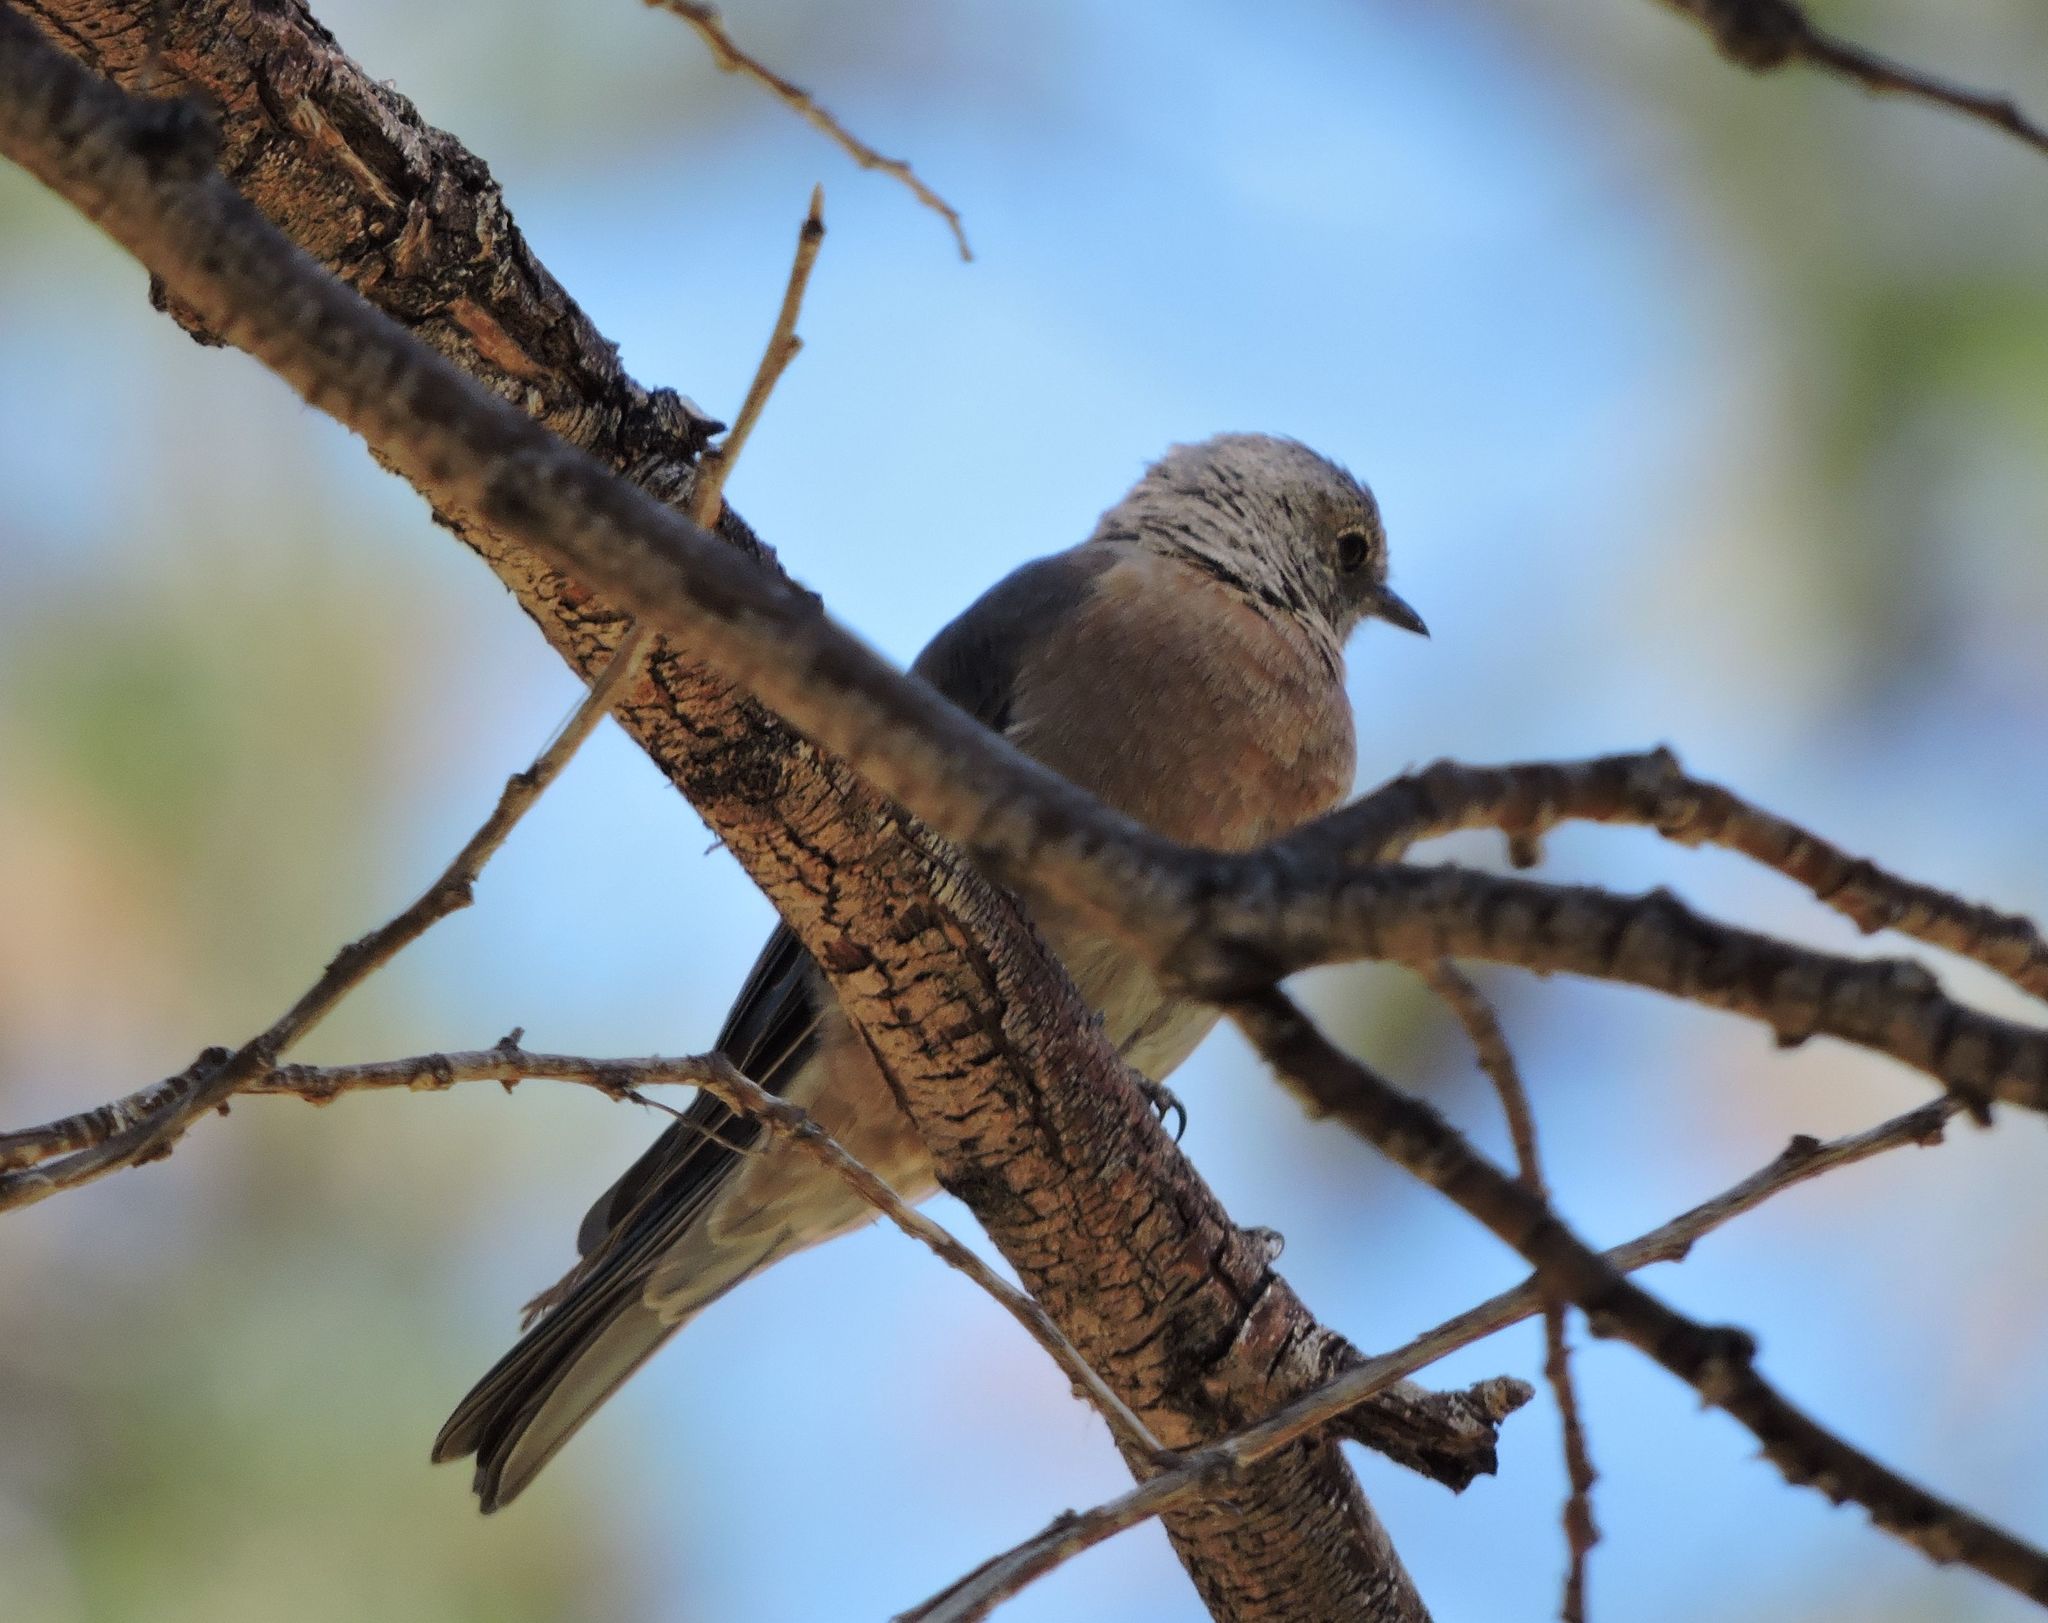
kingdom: Animalia
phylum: Chordata
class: Aves
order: Passeriformes
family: Turdidae
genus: Sialia
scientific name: Sialia mexicana
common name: Western bluebird
